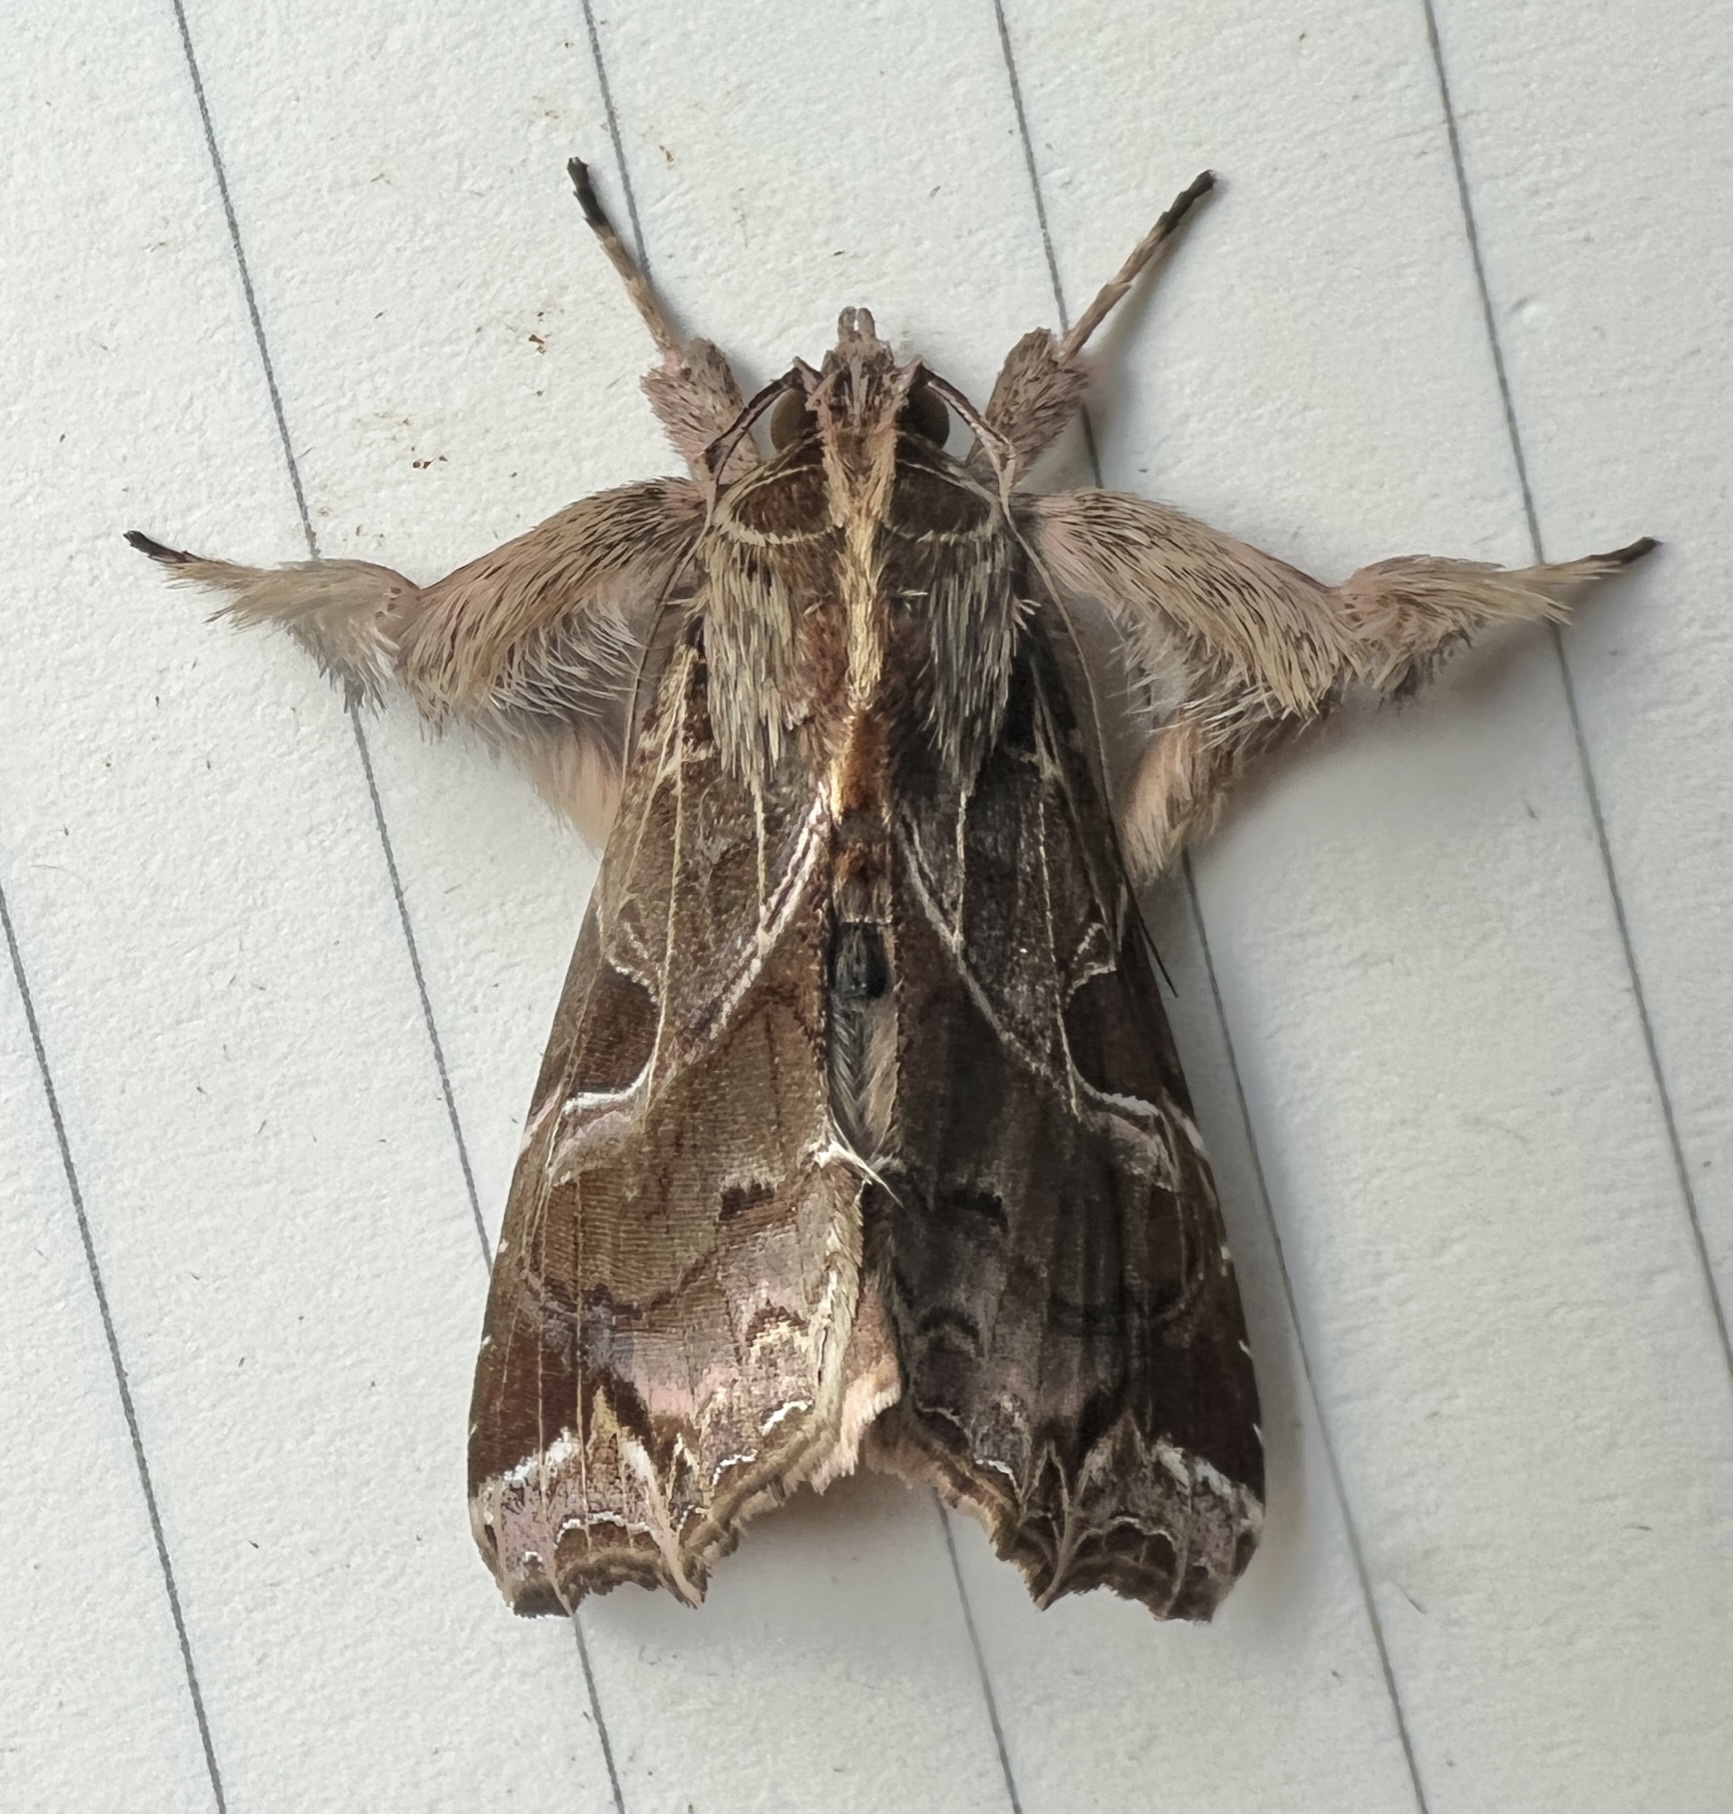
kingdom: Animalia
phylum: Arthropoda
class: Insecta
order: Lepidoptera
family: Noctuidae
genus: Callopistria
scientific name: Callopistria floridensis
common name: Florida fern moth
